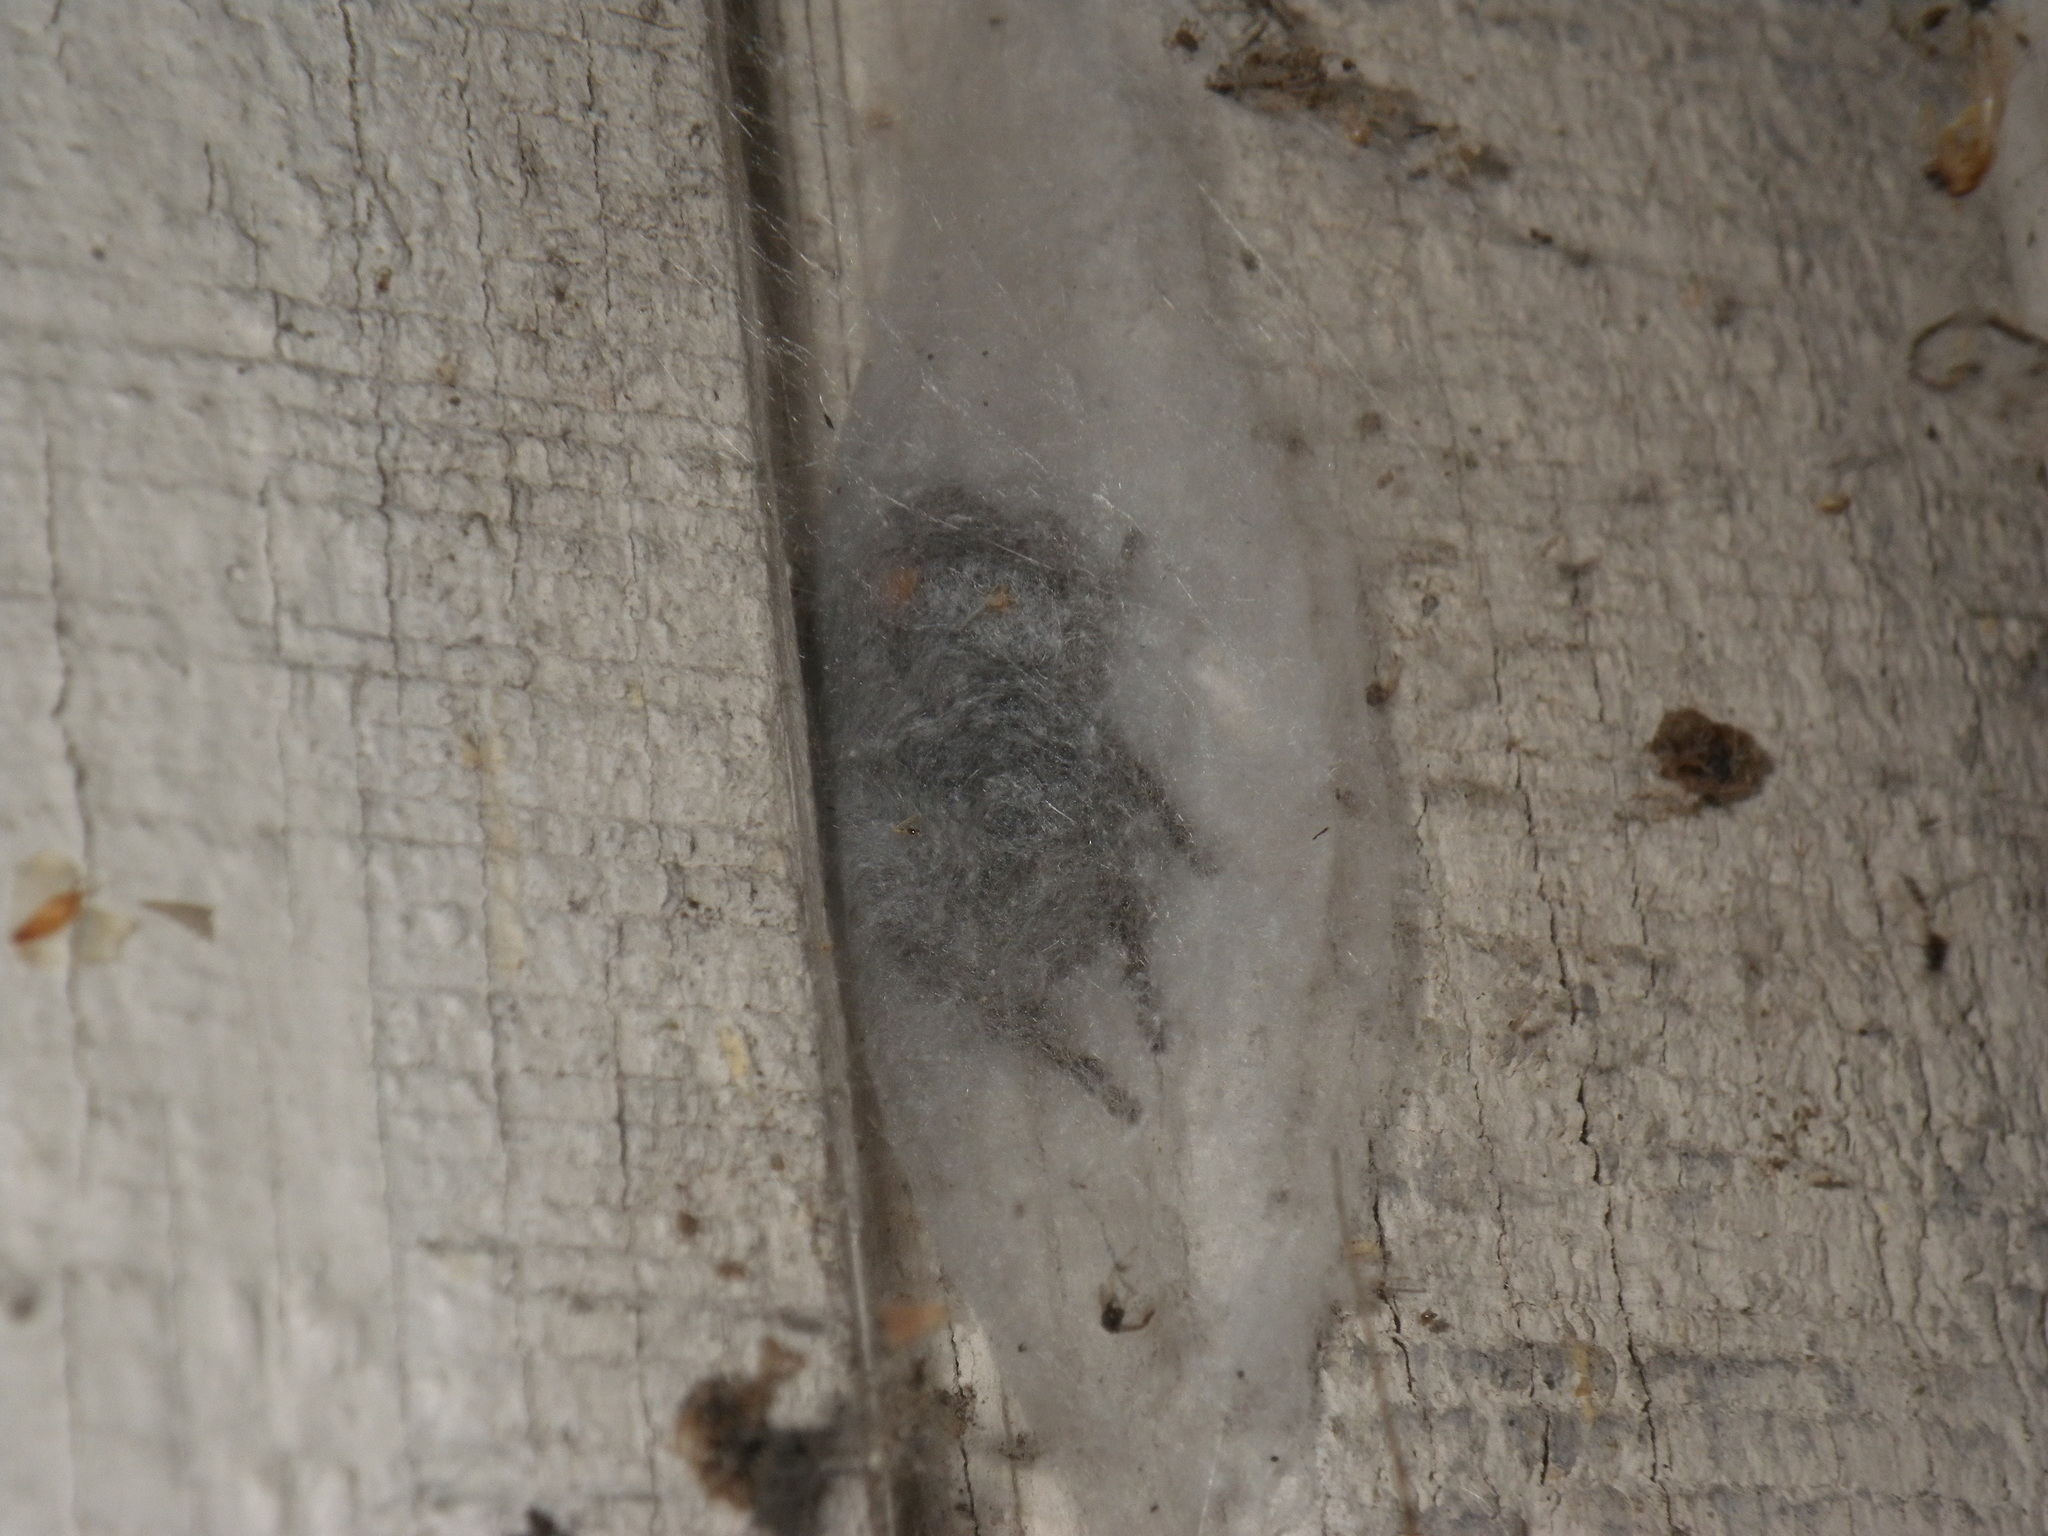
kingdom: Animalia
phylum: Arthropoda
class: Arachnida
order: Araneae
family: Salticidae
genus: Phidippus
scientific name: Phidippus audax
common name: Bold jumper
